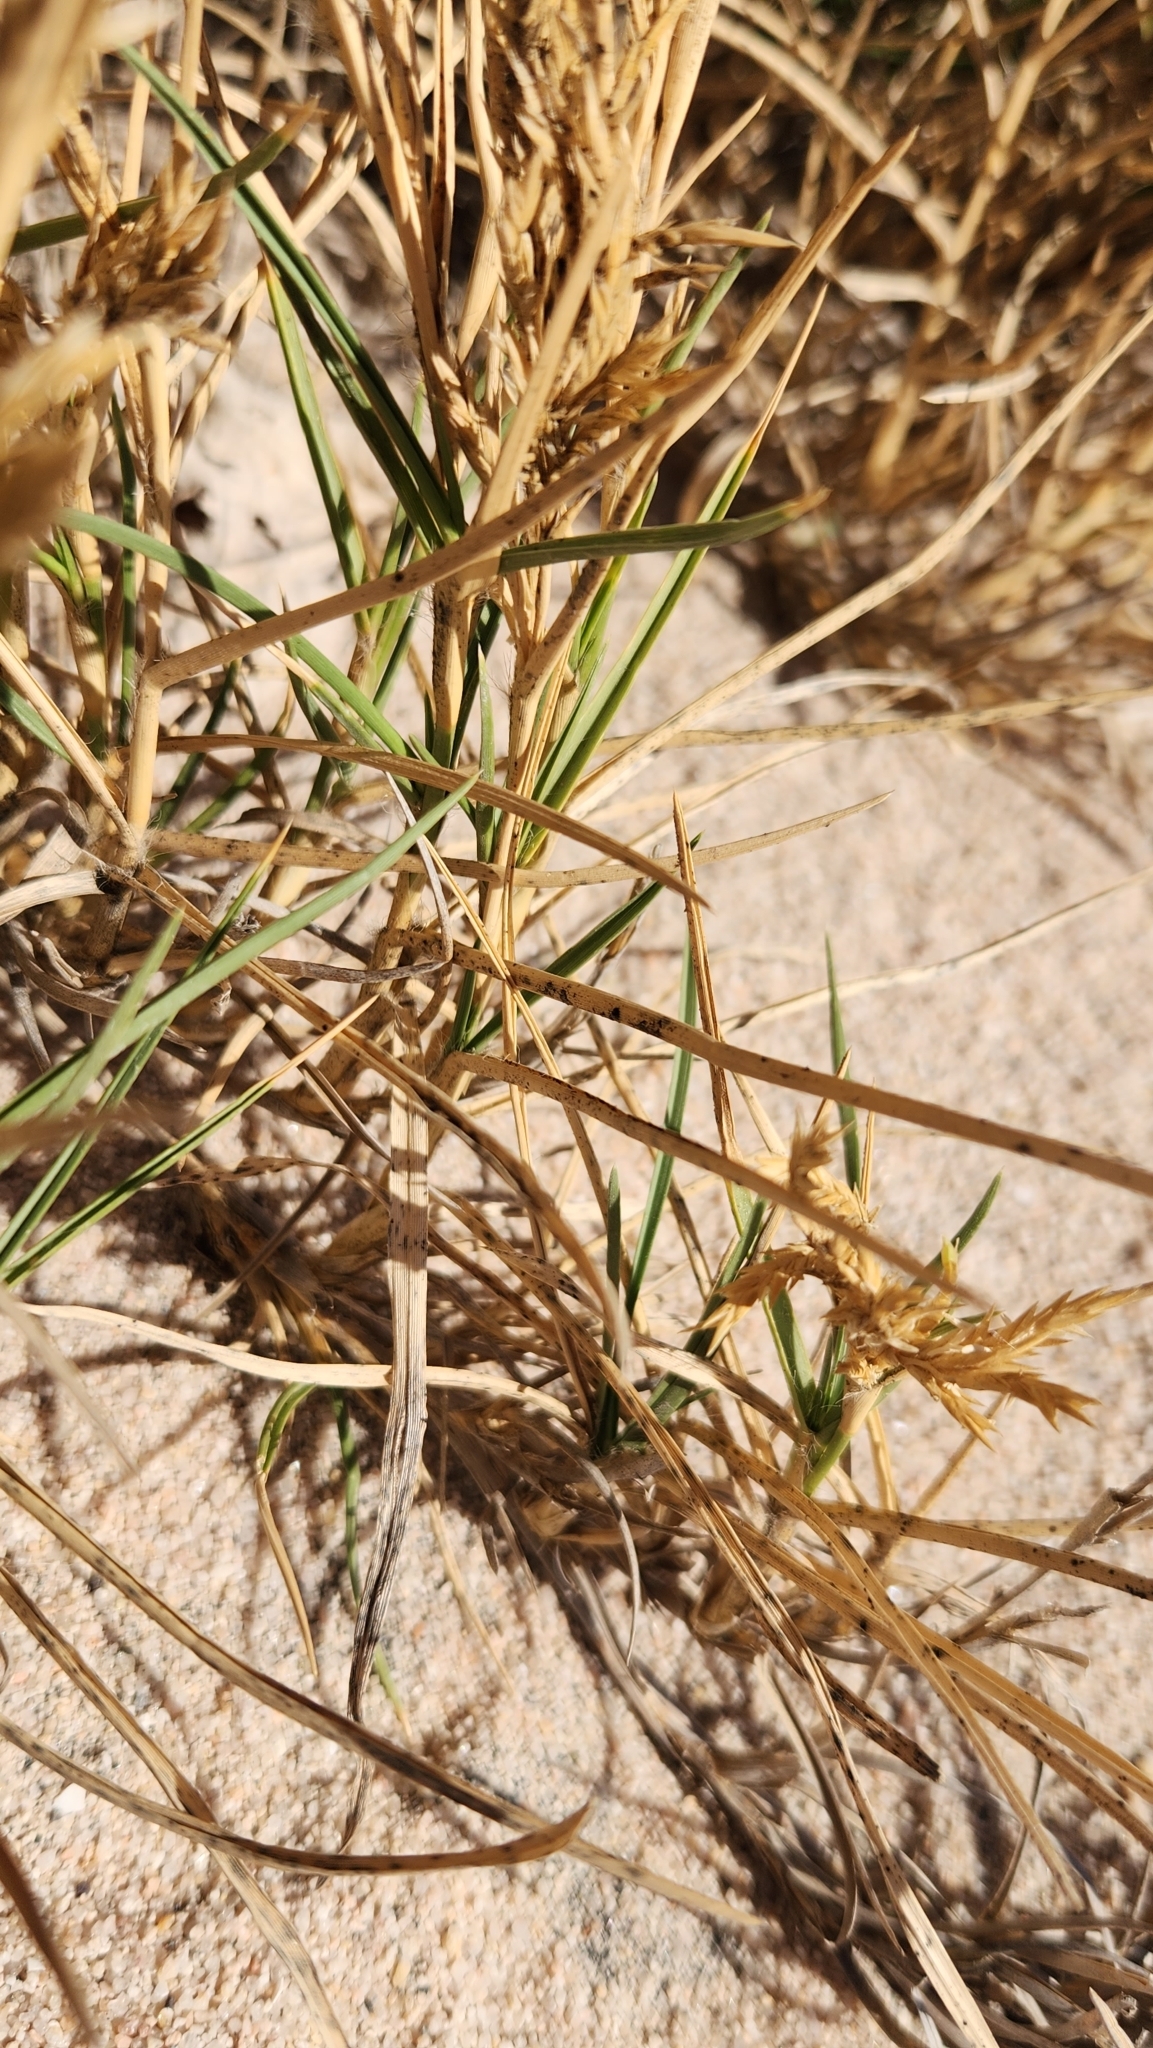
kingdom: Plantae
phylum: Tracheophyta
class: Liliopsida
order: Poales
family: Poaceae
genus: Jouvea
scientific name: Jouvea pilosa
